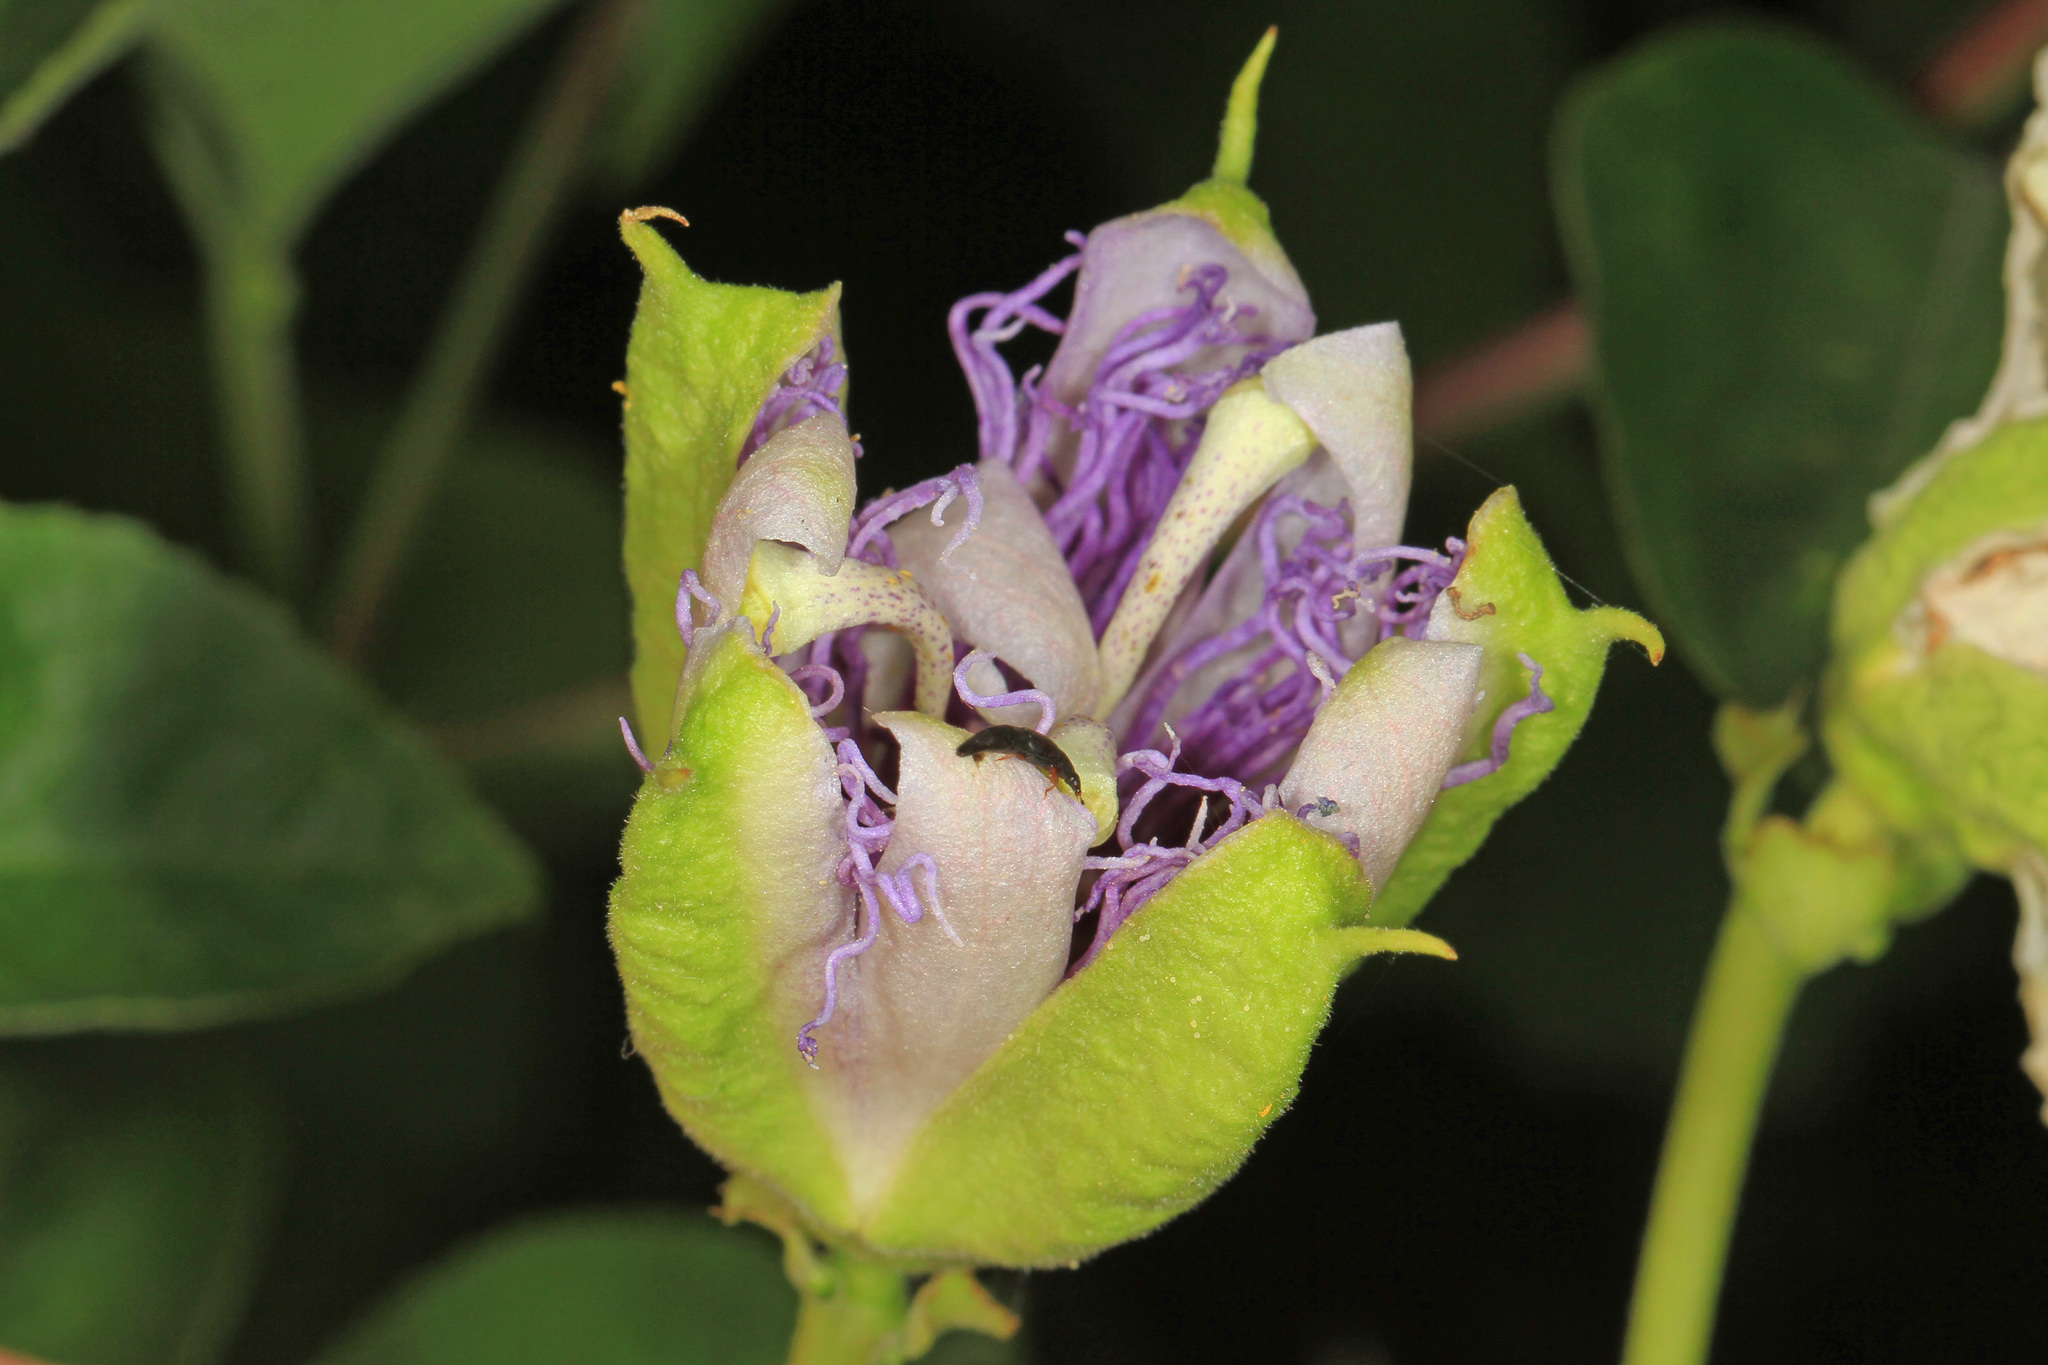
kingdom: Plantae
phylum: Tracheophyta
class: Magnoliopsida
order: Malpighiales
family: Passifloraceae
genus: Passiflora
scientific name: Passiflora incarnata
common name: Apricot-vine
